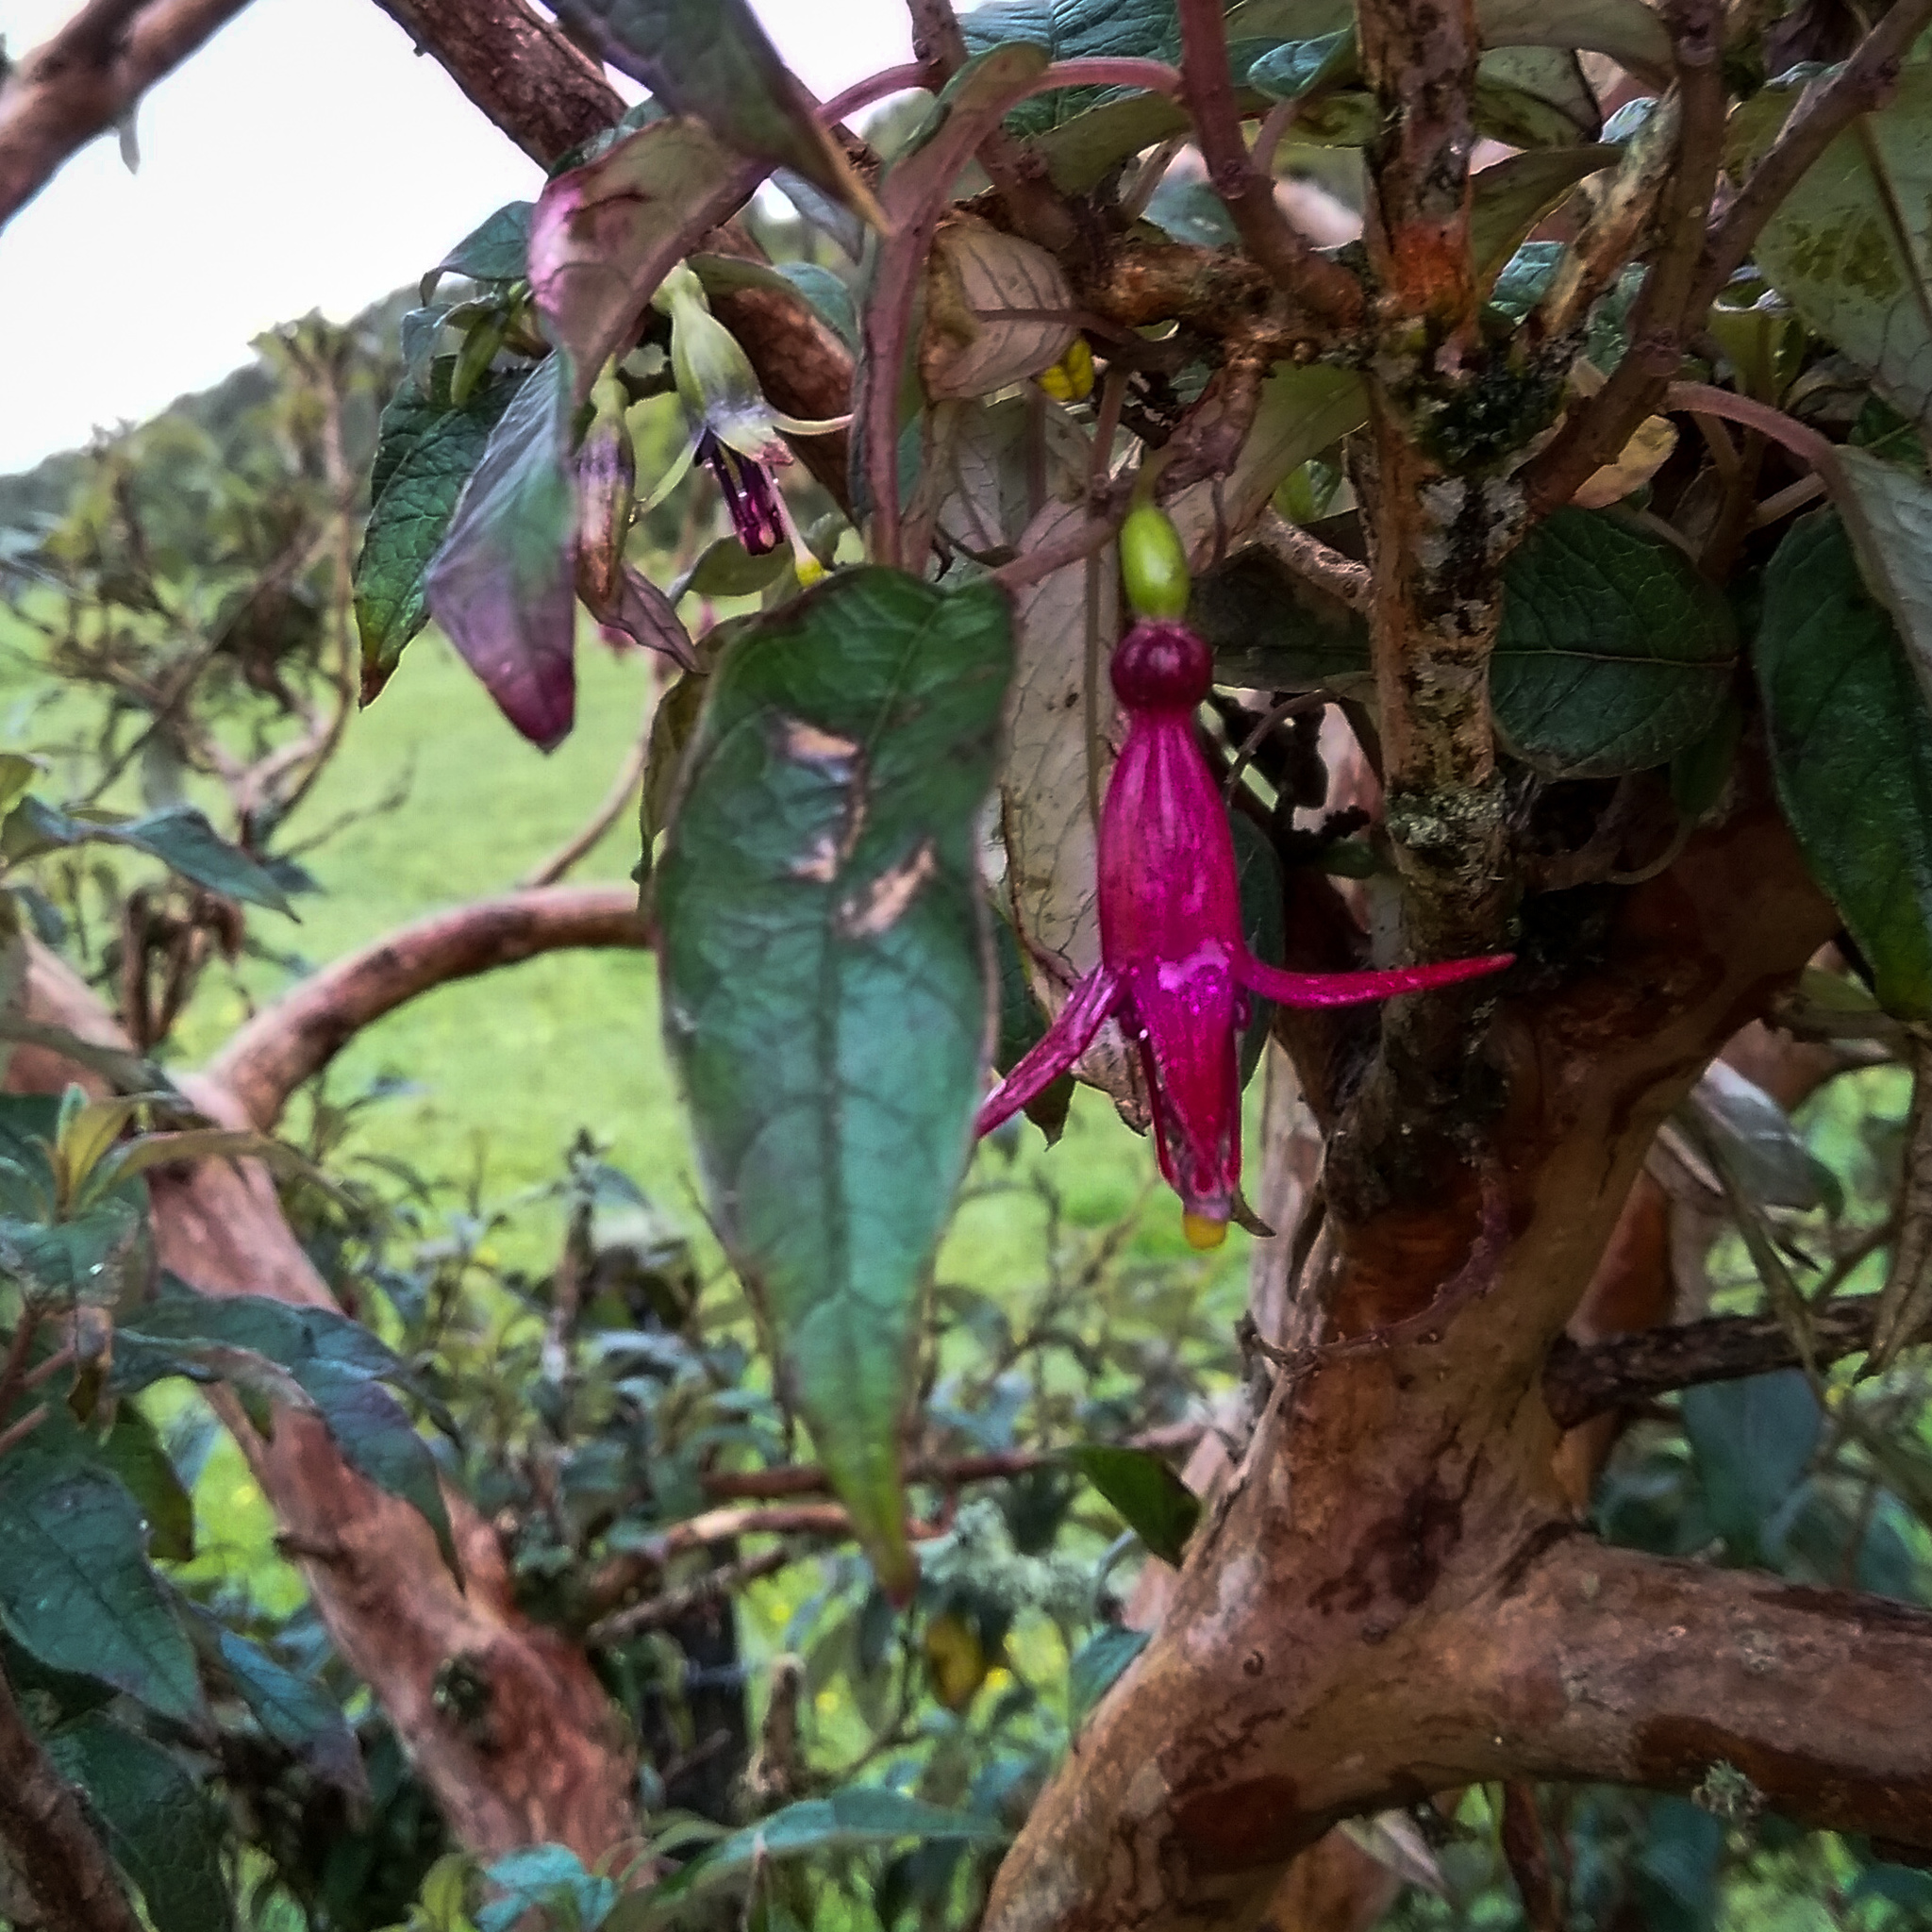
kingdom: Plantae
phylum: Tracheophyta
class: Magnoliopsida
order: Myrtales
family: Onagraceae
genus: Fuchsia
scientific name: Fuchsia excorticata
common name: Tree fuchsia
